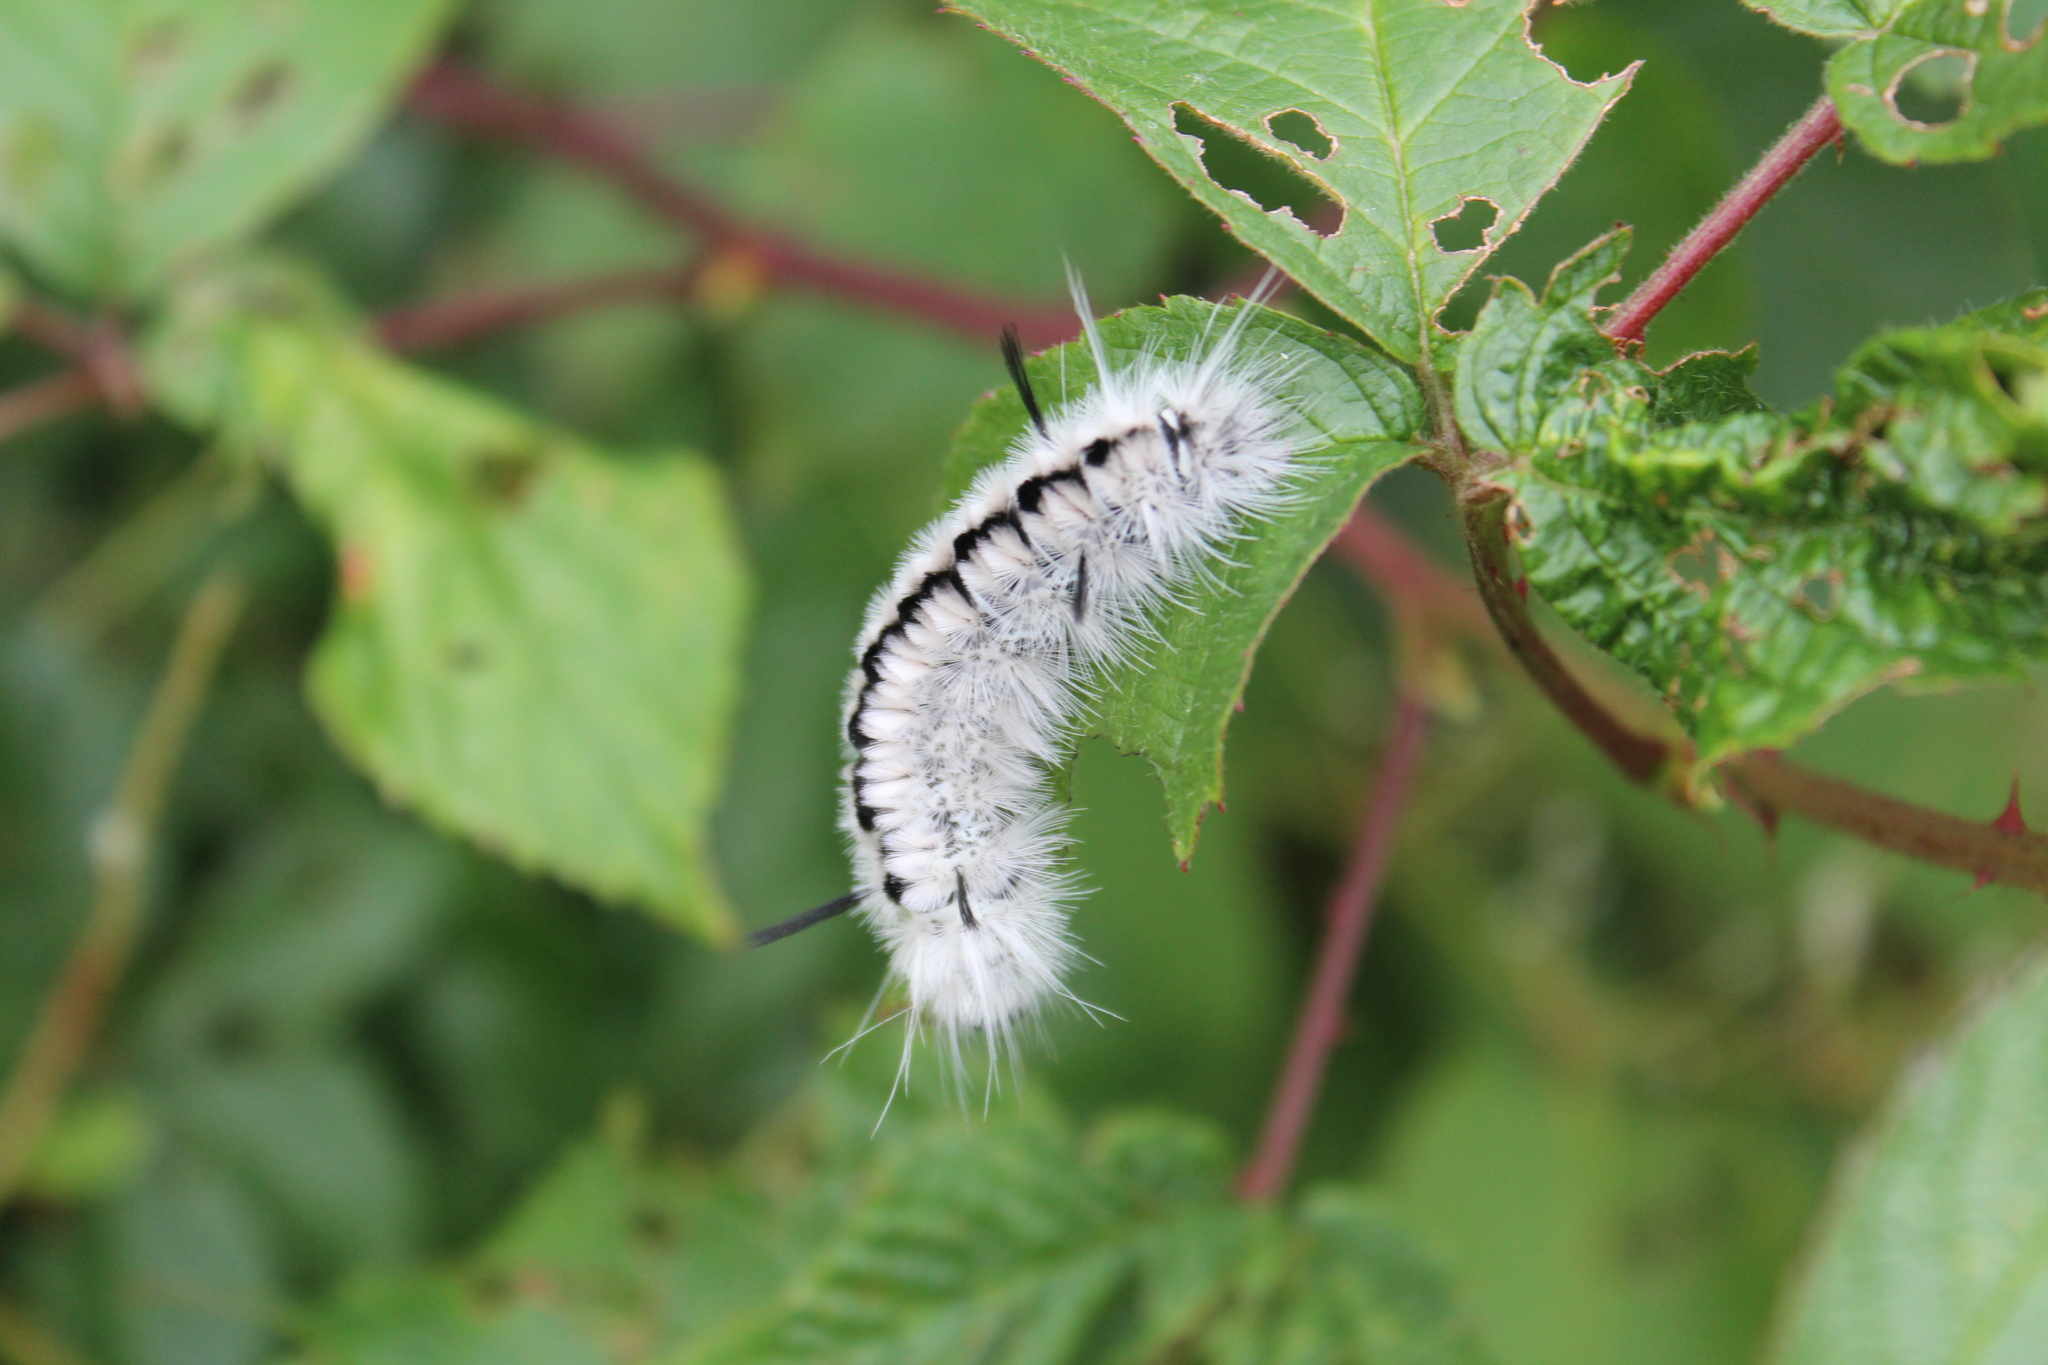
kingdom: Animalia
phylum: Arthropoda
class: Insecta
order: Lepidoptera
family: Erebidae
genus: Lophocampa
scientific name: Lophocampa caryae
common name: Hickory tussock moth
